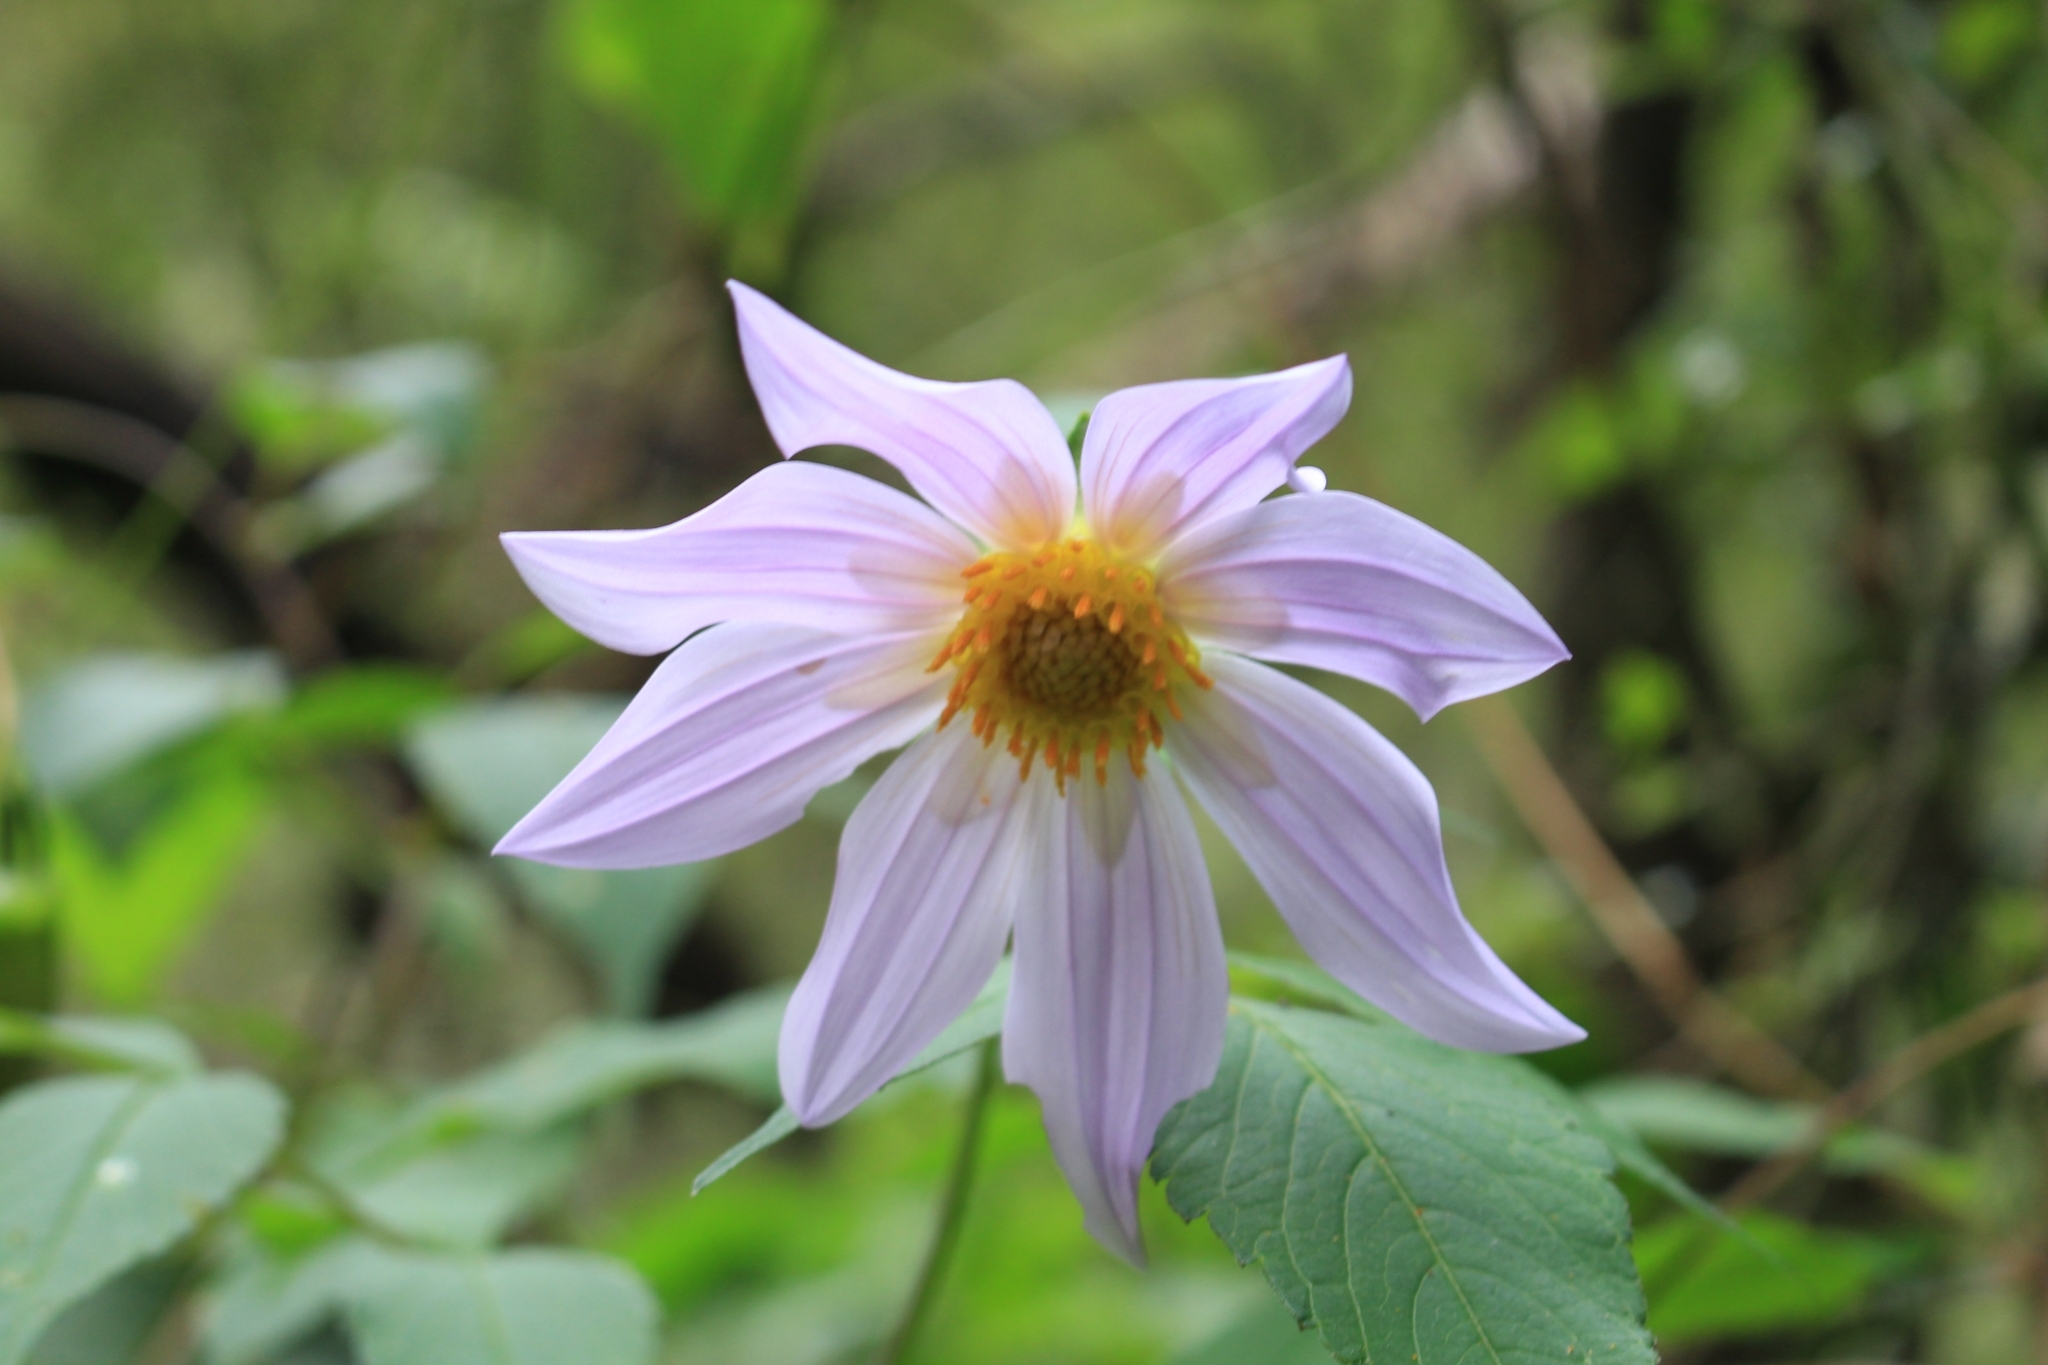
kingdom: Plantae
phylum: Tracheophyta
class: Magnoliopsida
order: Asterales
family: Asteraceae
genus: Dahlia
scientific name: Dahlia imperialis
